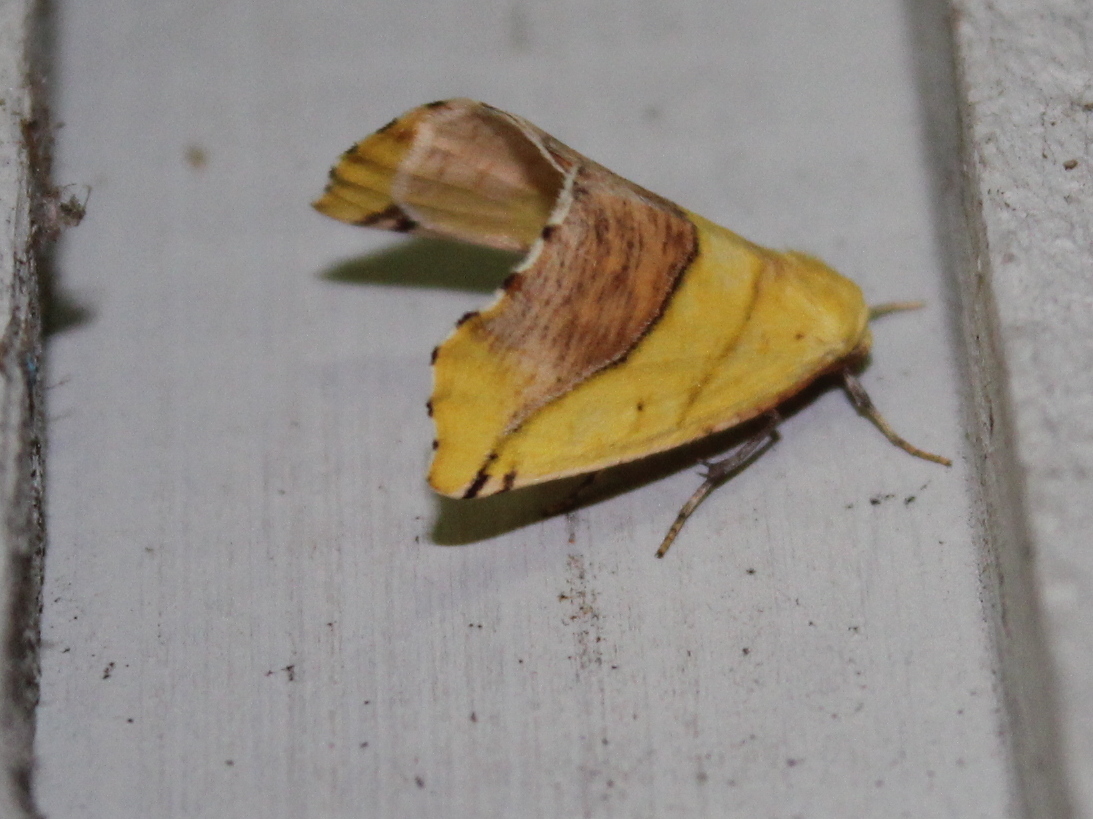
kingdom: Animalia
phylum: Arthropoda
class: Insecta
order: Lepidoptera
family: Geometridae
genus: Sicya
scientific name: Sicya macularia
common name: Sharp-lined yellow
